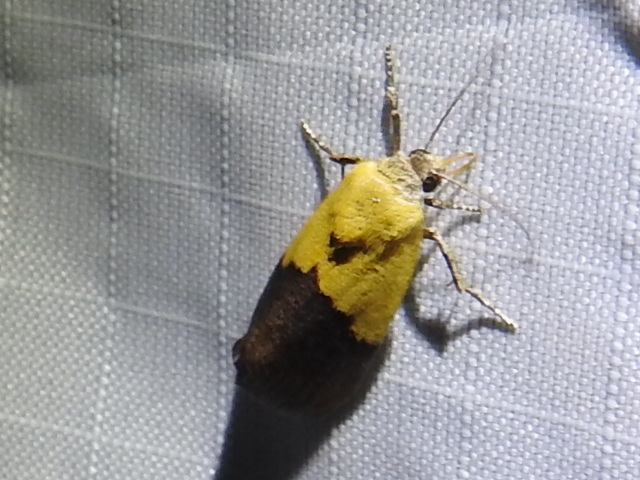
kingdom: Animalia
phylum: Arthropoda
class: Insecta
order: Lepidoptera
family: Noctuidae
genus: Acontia
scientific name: Acontia semiflava
